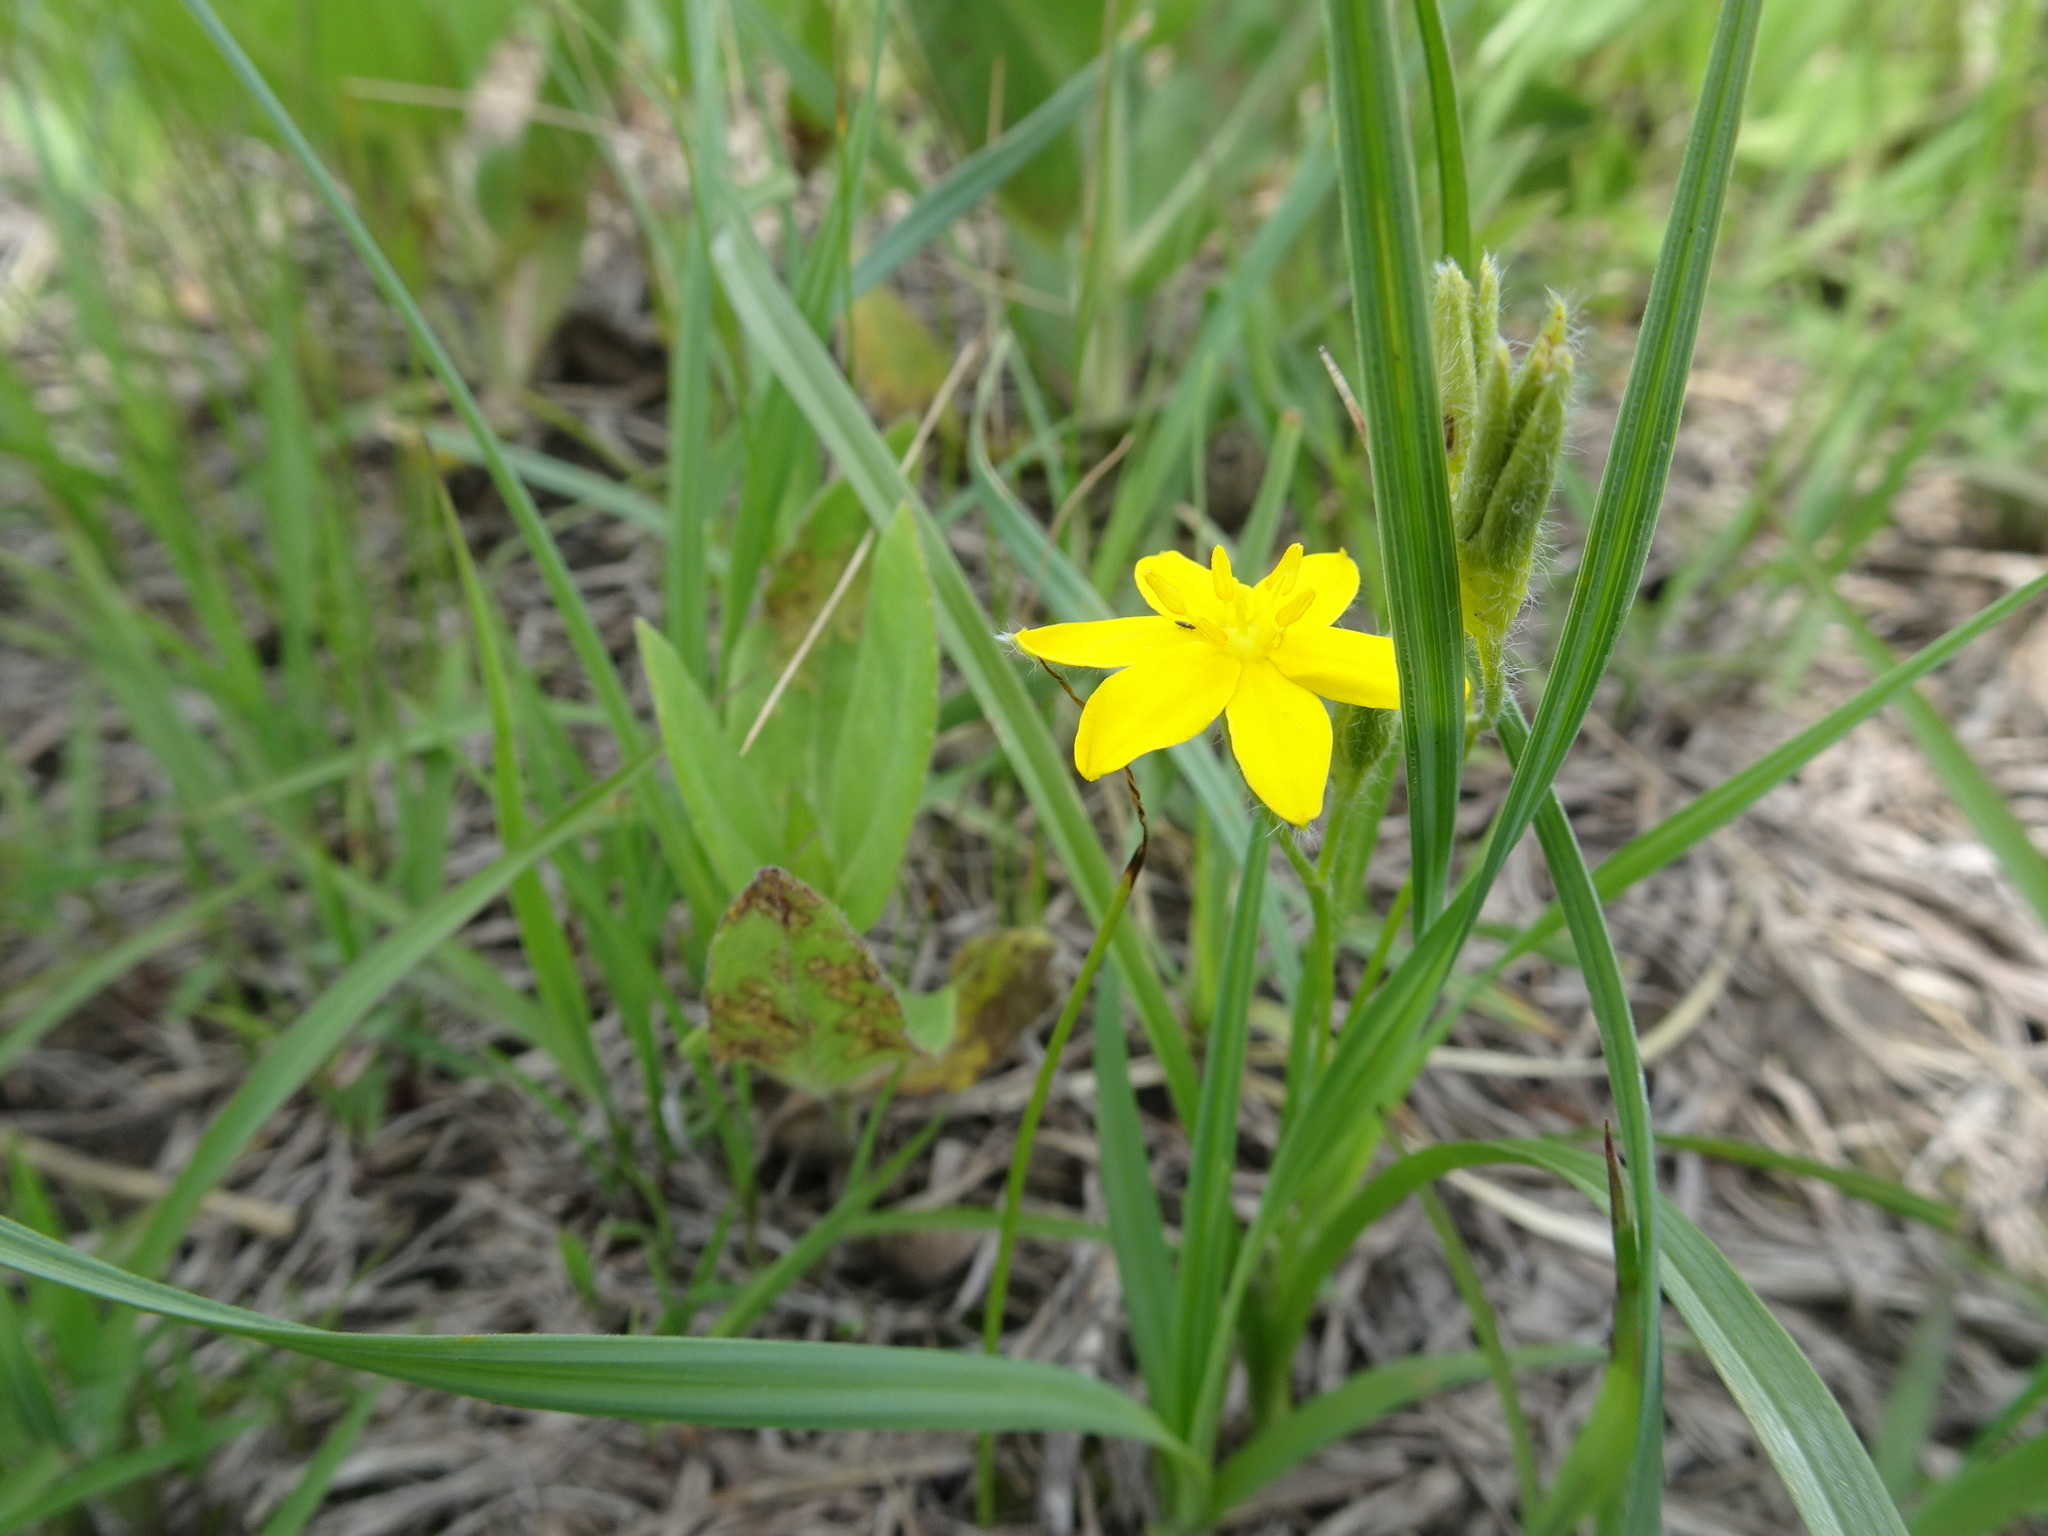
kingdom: Plantae
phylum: Tracheophyta
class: Liliopsida
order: Asparagales
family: Hypoxidaceae
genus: Hypoxis
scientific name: Hypoxis hirsuta
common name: Common goldstar
